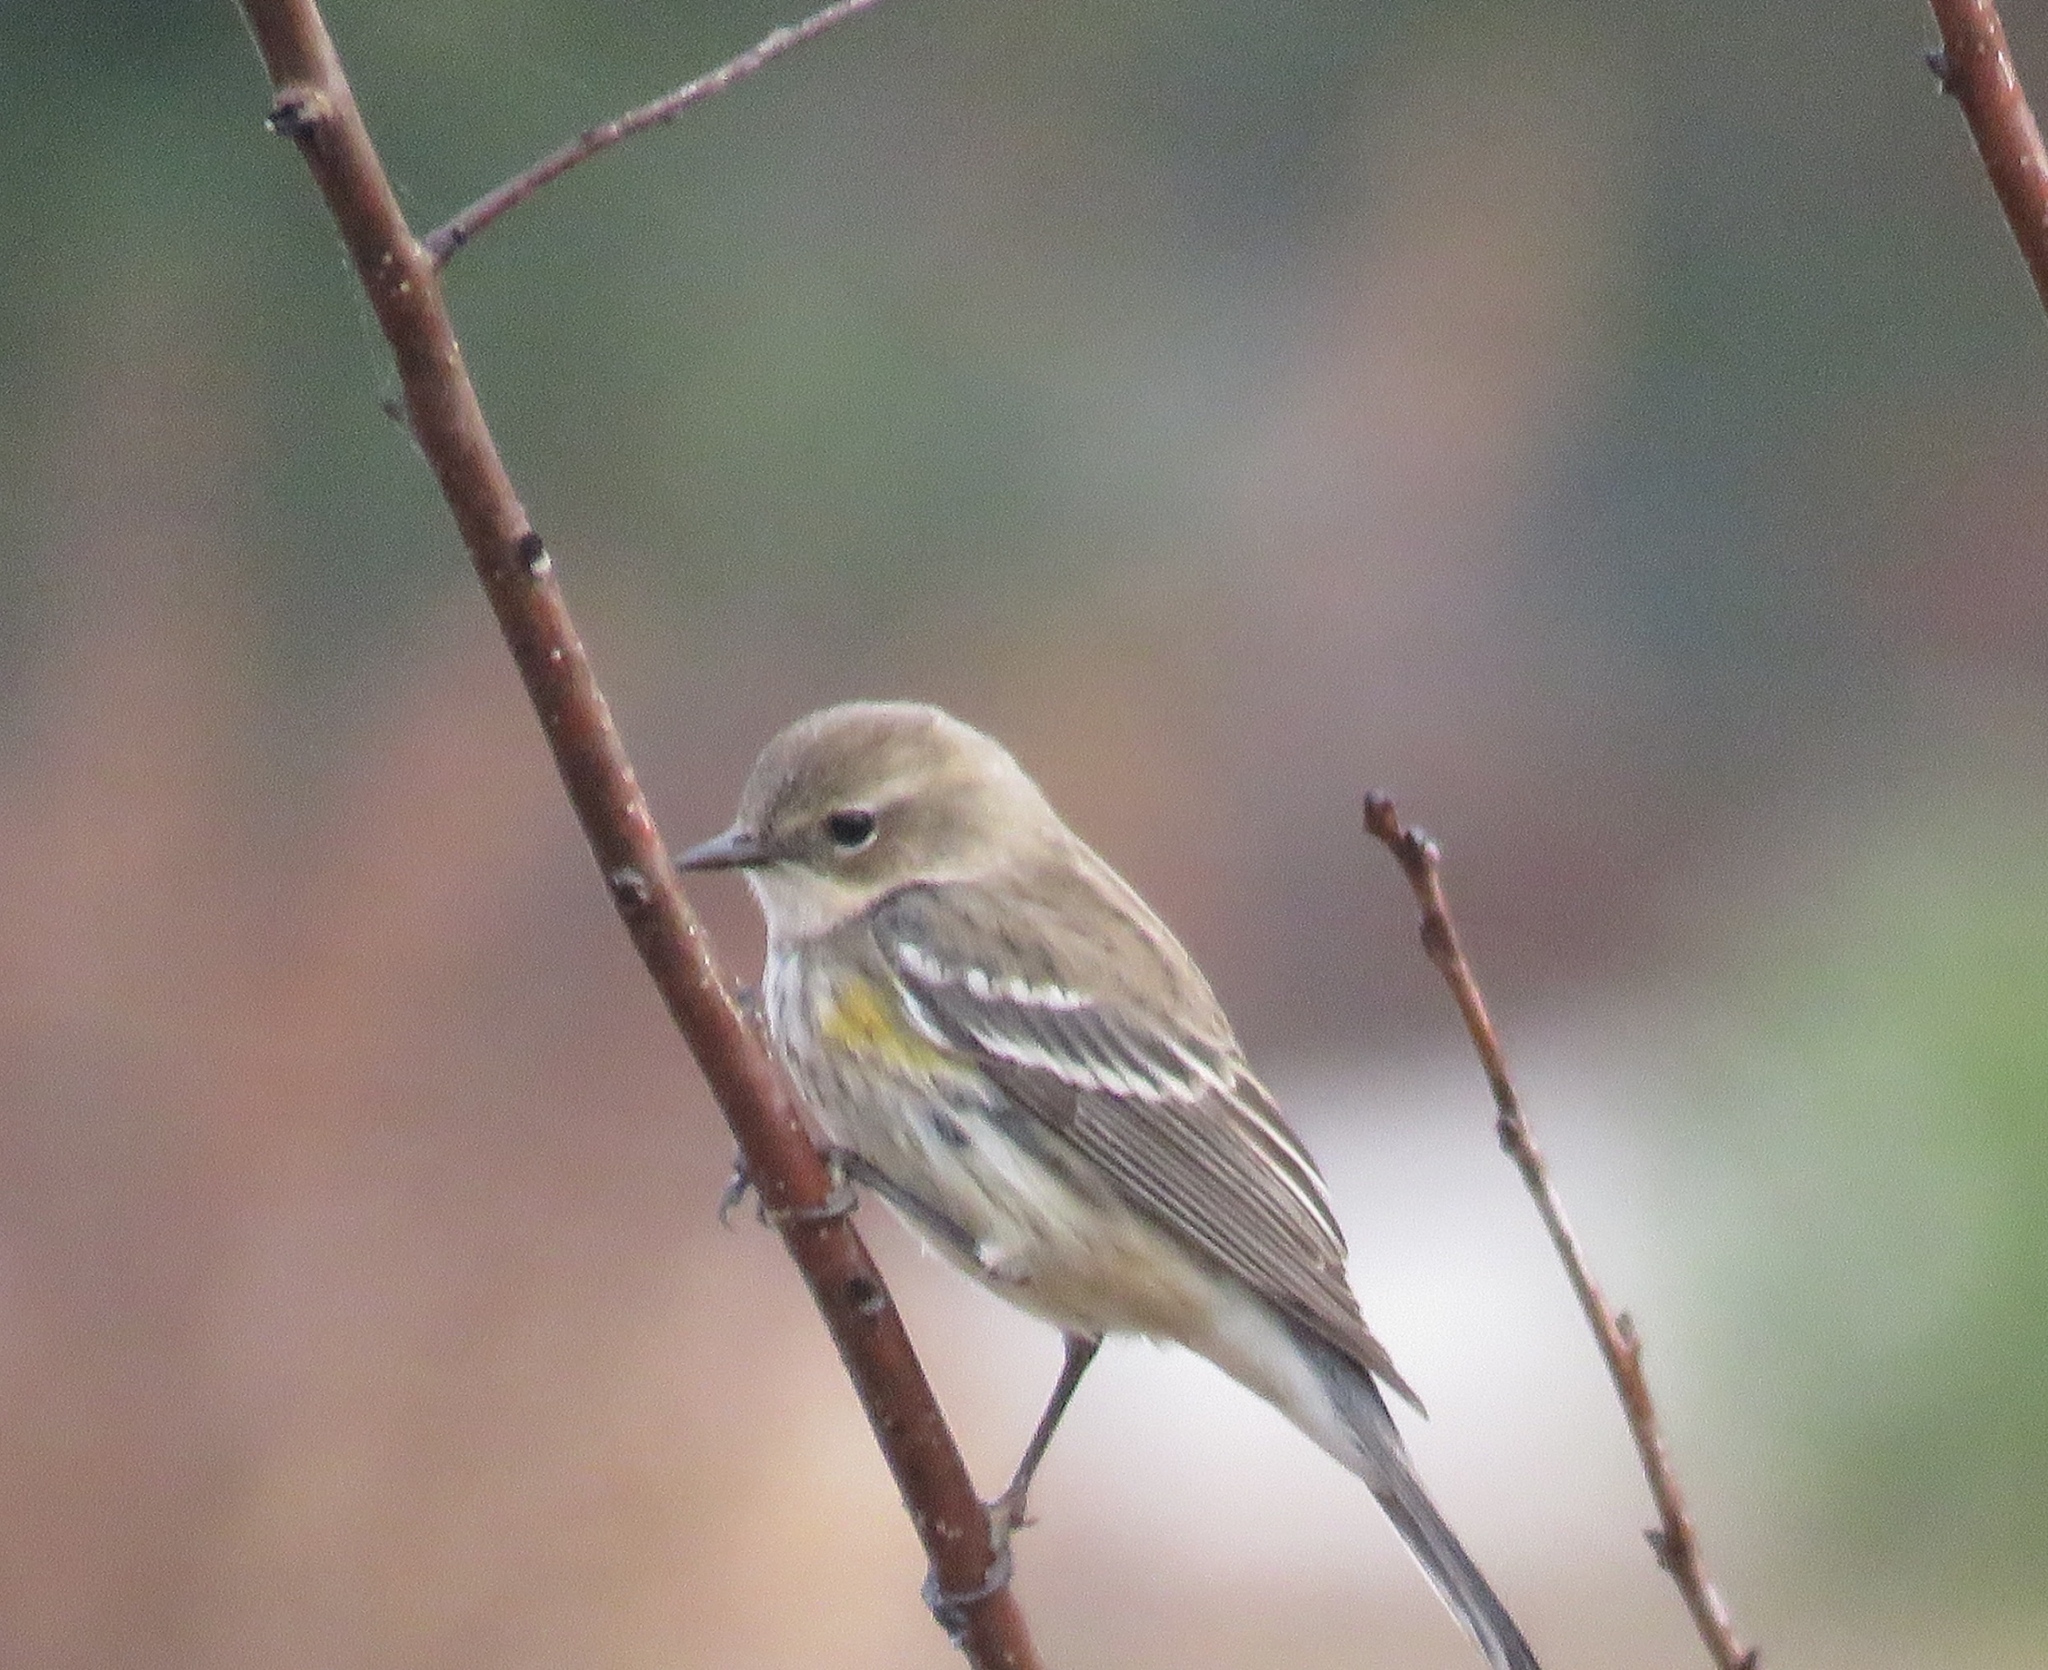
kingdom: Animalia
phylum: Chordata
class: Aves
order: Passeriformes
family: Parulidae
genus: Setophaga
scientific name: Setophaga coronata
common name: Myrtle warbler
